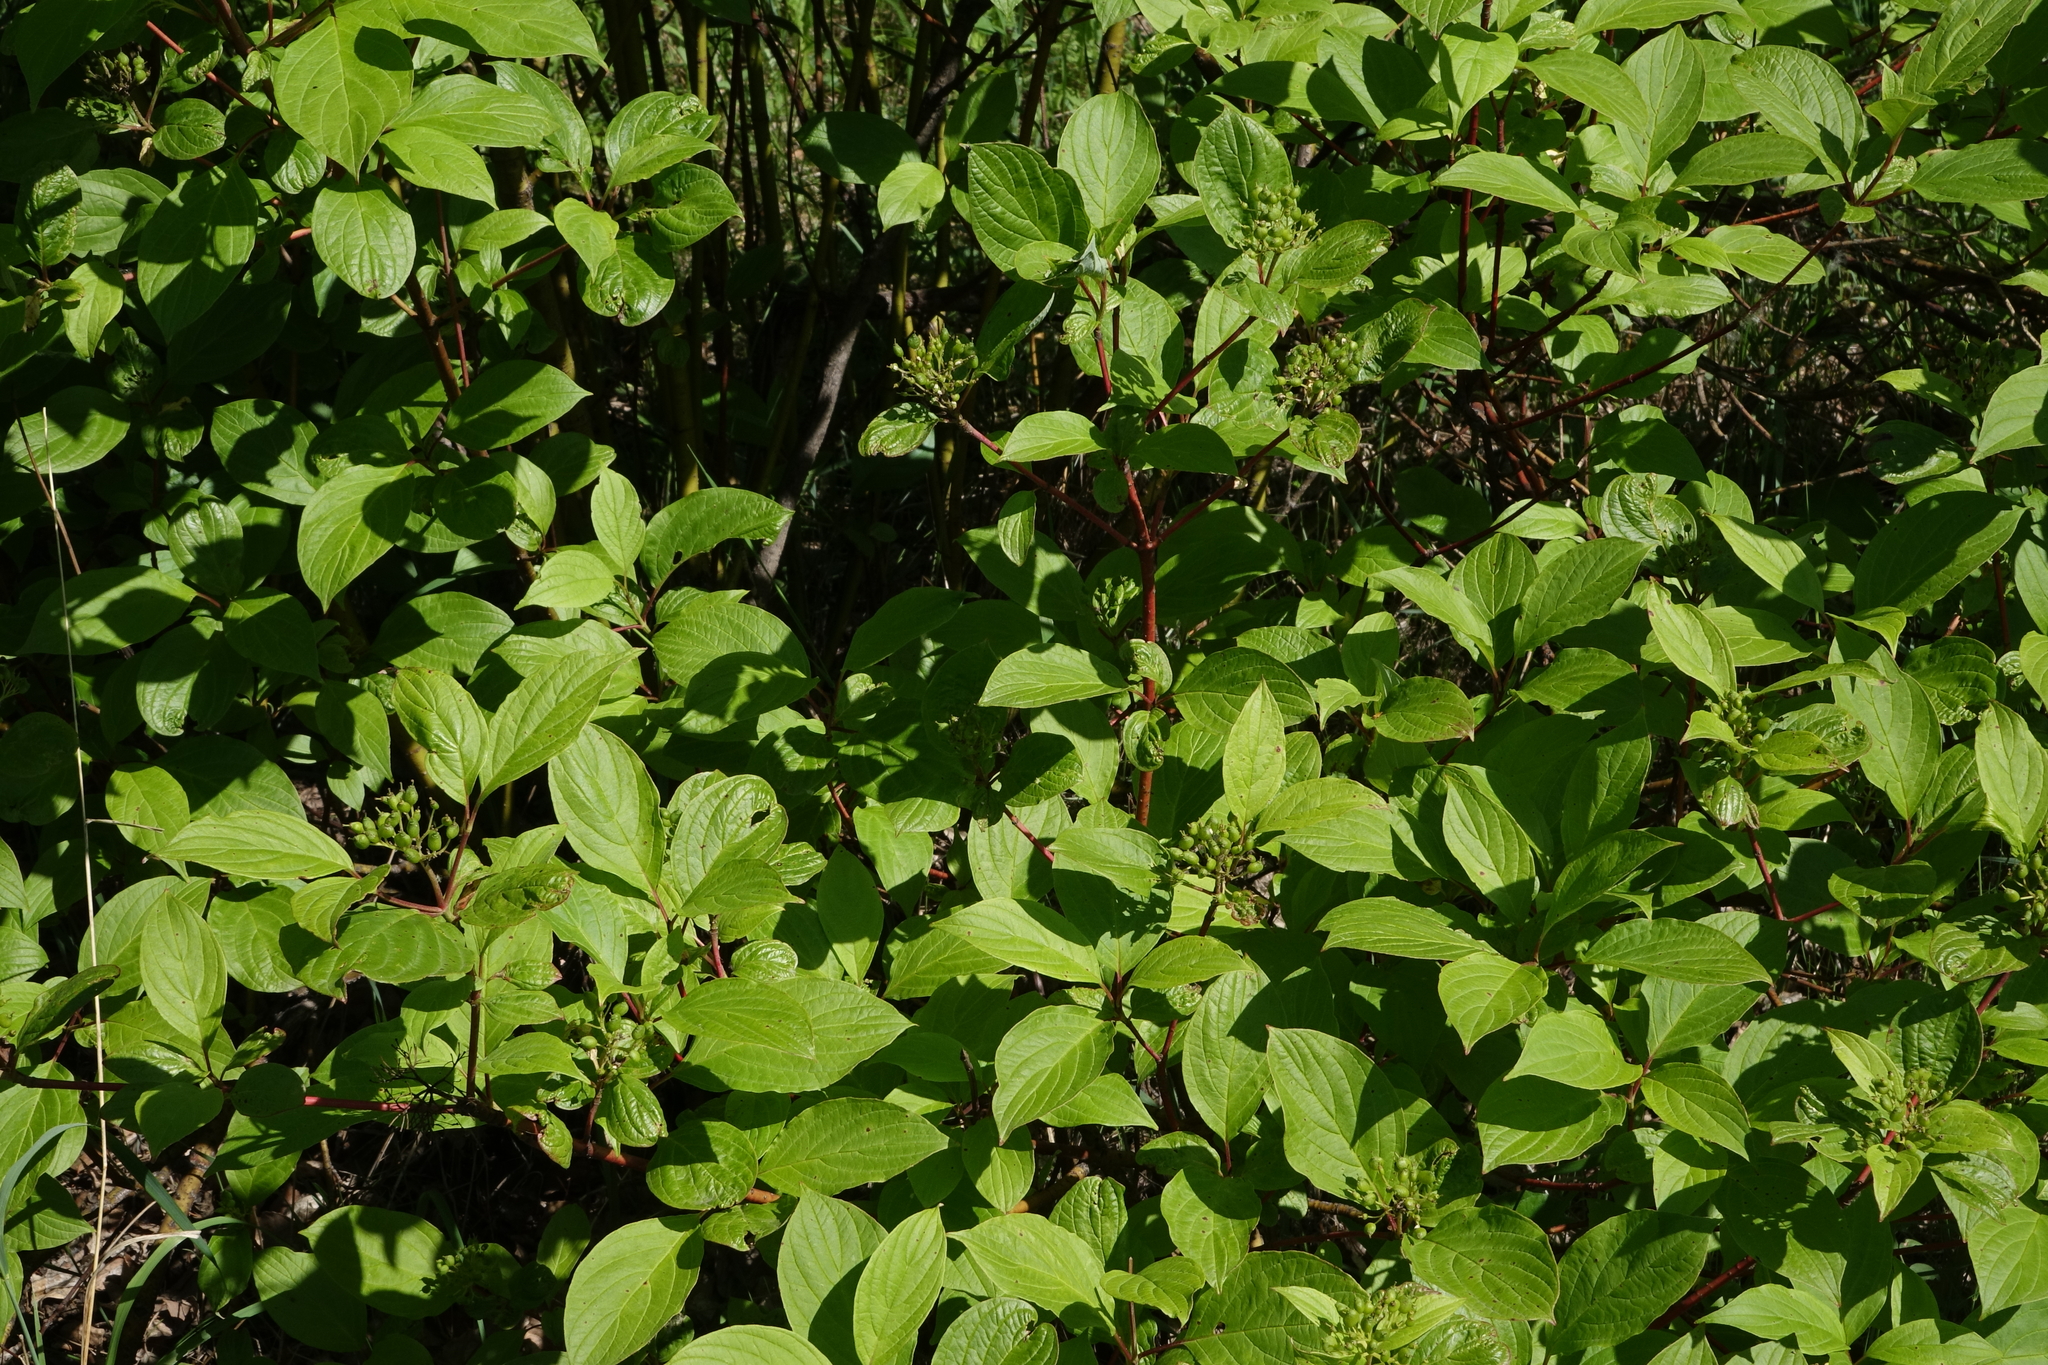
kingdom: Plantae
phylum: Tracheophyta
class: Magnoliopsida
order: Cornales
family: Cornaceae
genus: Cornus
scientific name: Cornus alba
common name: White dogwood
